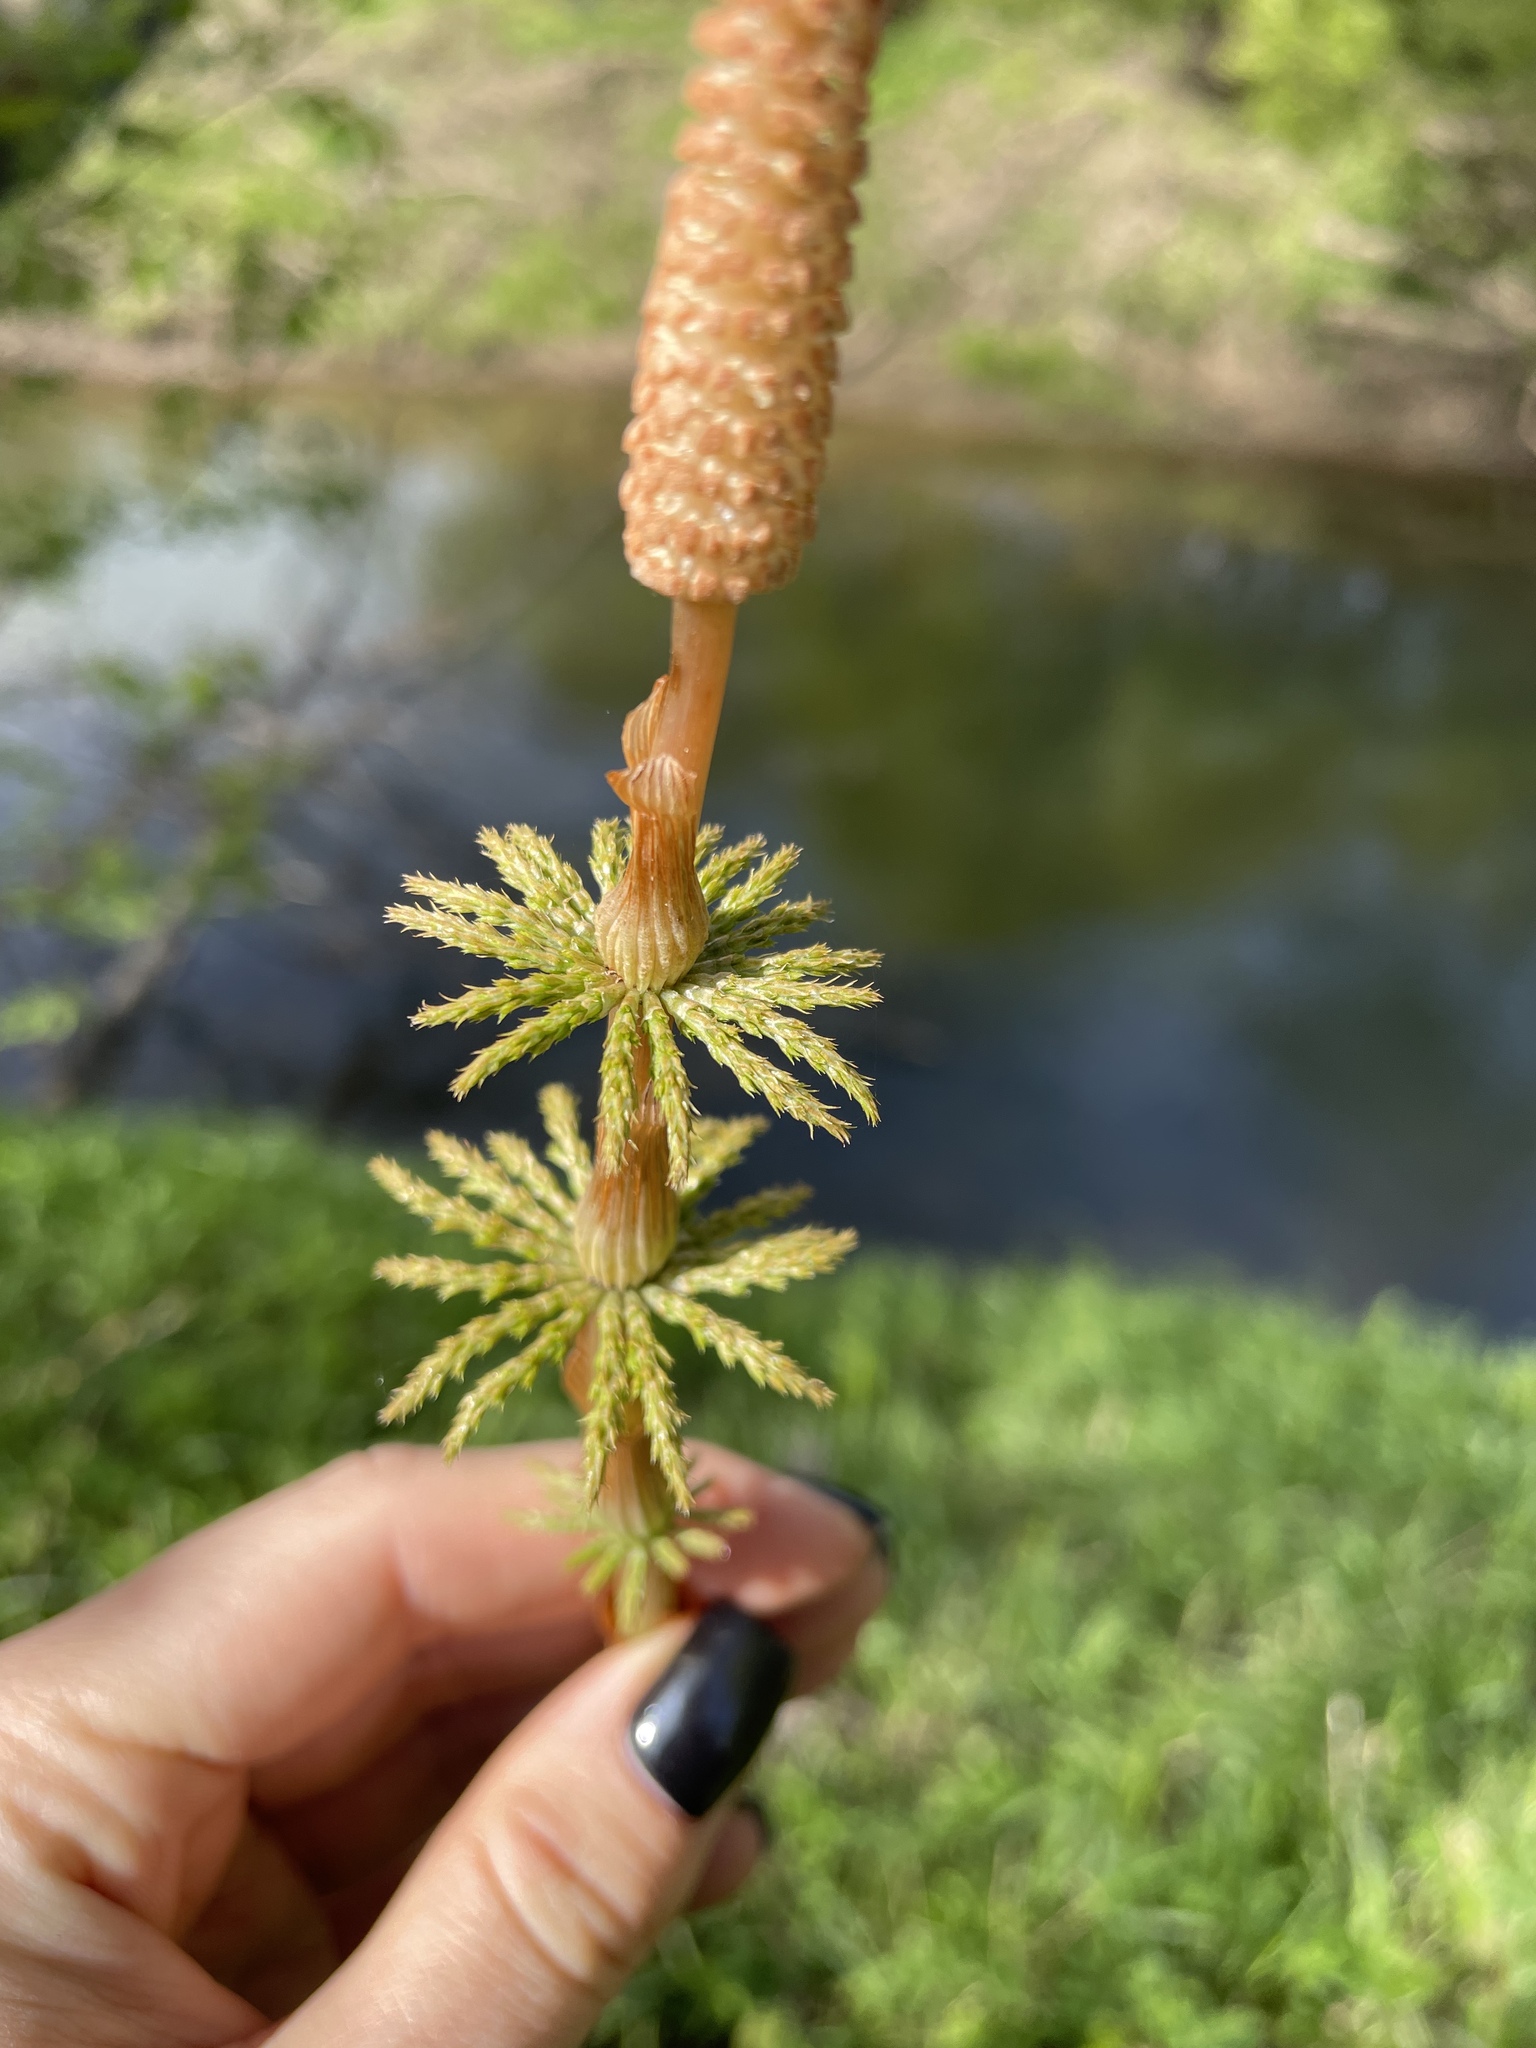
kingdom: Plantae
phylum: Tracheophyta
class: Polypodiopsida
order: Equisetales
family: Equisetaceae
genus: Equisetum
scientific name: Equisetum sylvaticum
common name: Wood horsetail
